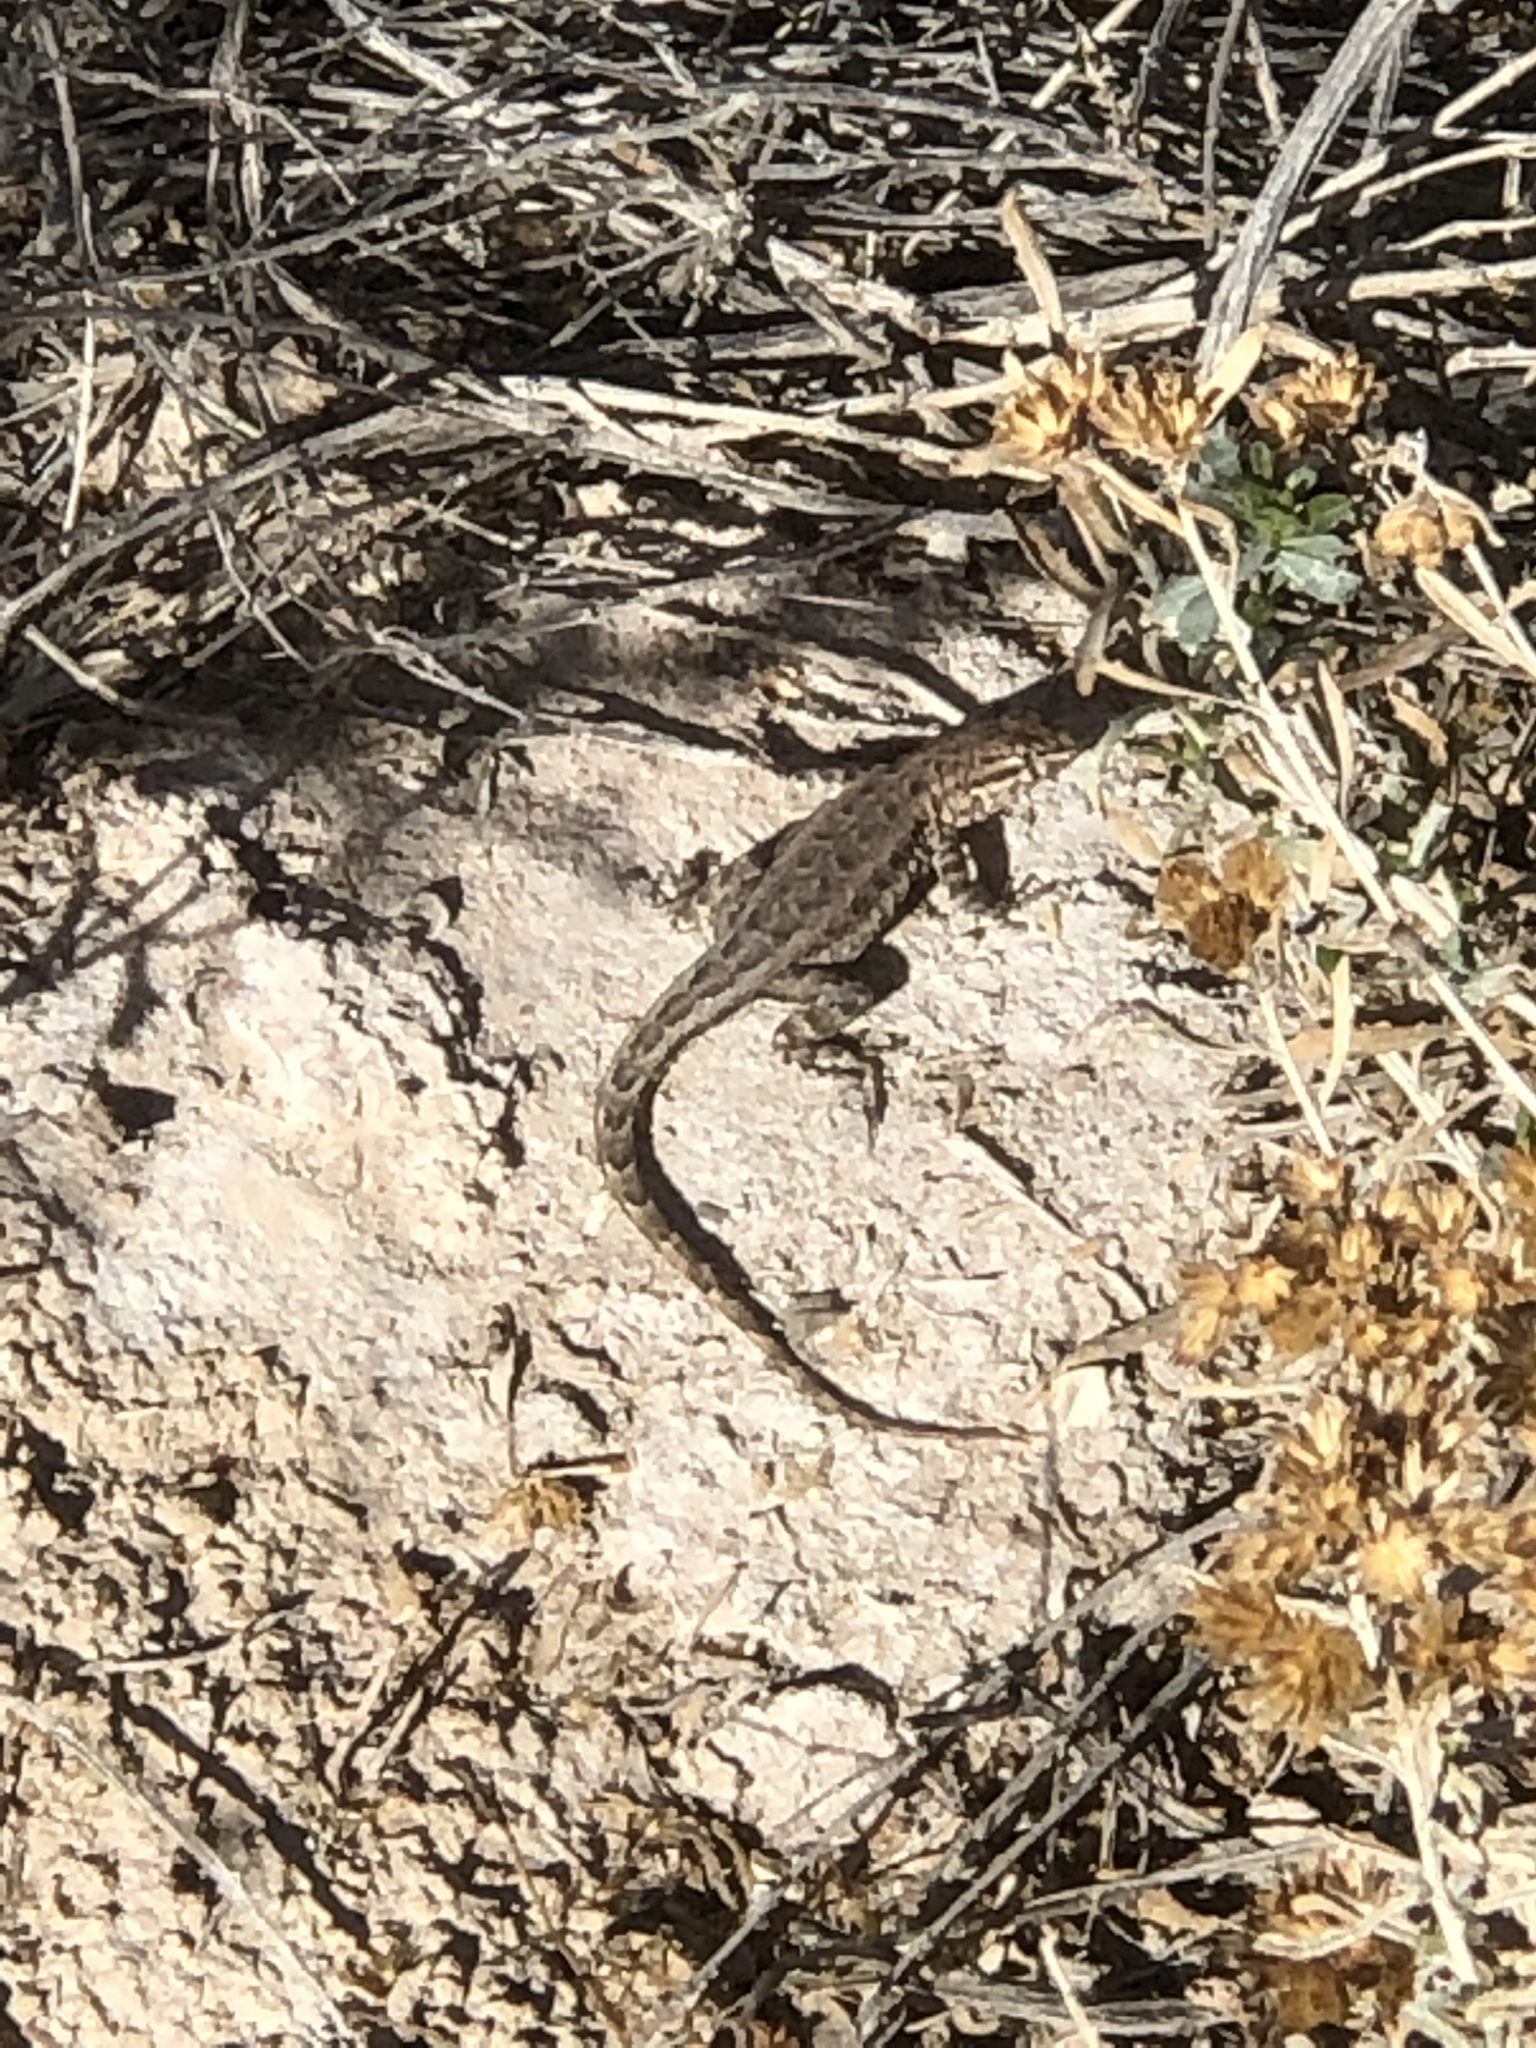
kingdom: Animalia
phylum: Chordata
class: Squamata
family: Phrynosomatidae
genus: Uta
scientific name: Uta stansburiana
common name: Side-blotched lizard
